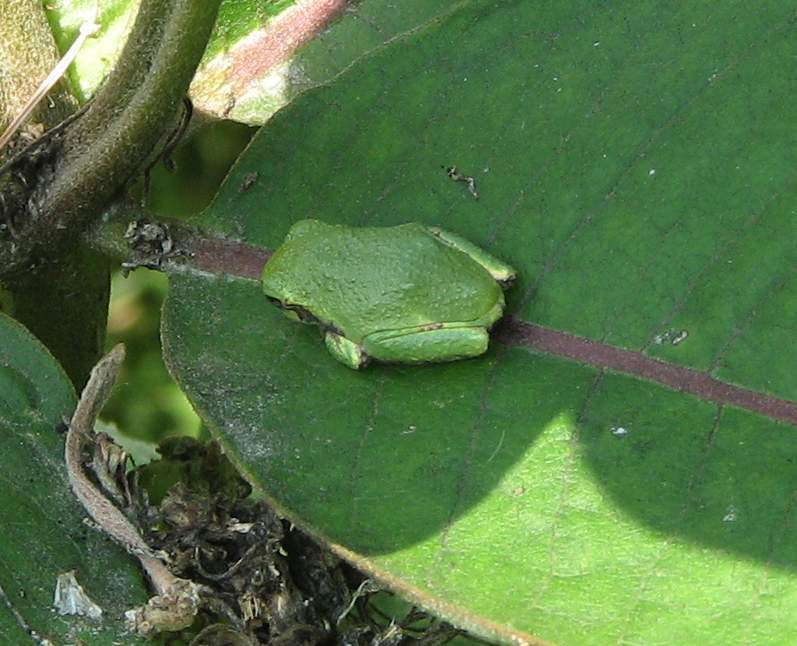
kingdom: Animalia
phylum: Chordata
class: Amphibia
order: Anura
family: Hylidae
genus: Dryophytes
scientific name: Dryophytes versicolor
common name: Gray treefrog
